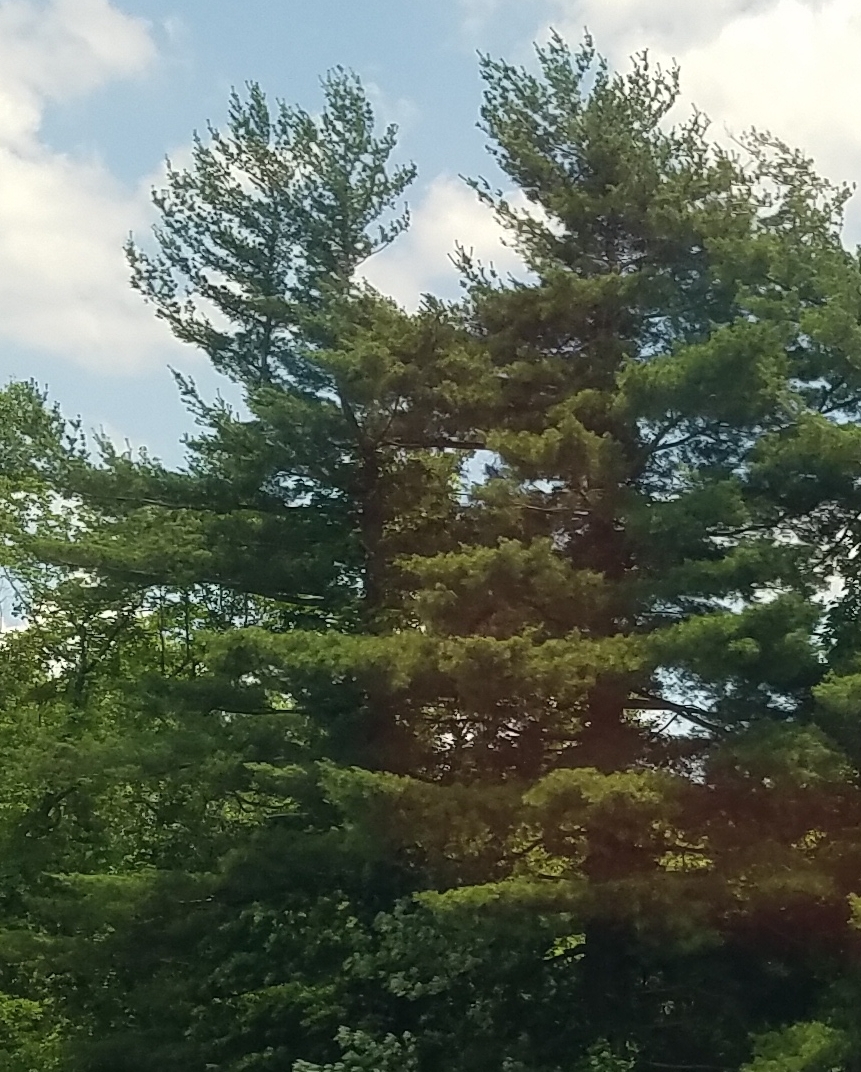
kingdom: Plantae
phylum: Tracheophyta
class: Pinopsida
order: Pinales
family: Pinaceae
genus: Pinus
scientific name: Pinus strobus
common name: Weymouth pine
